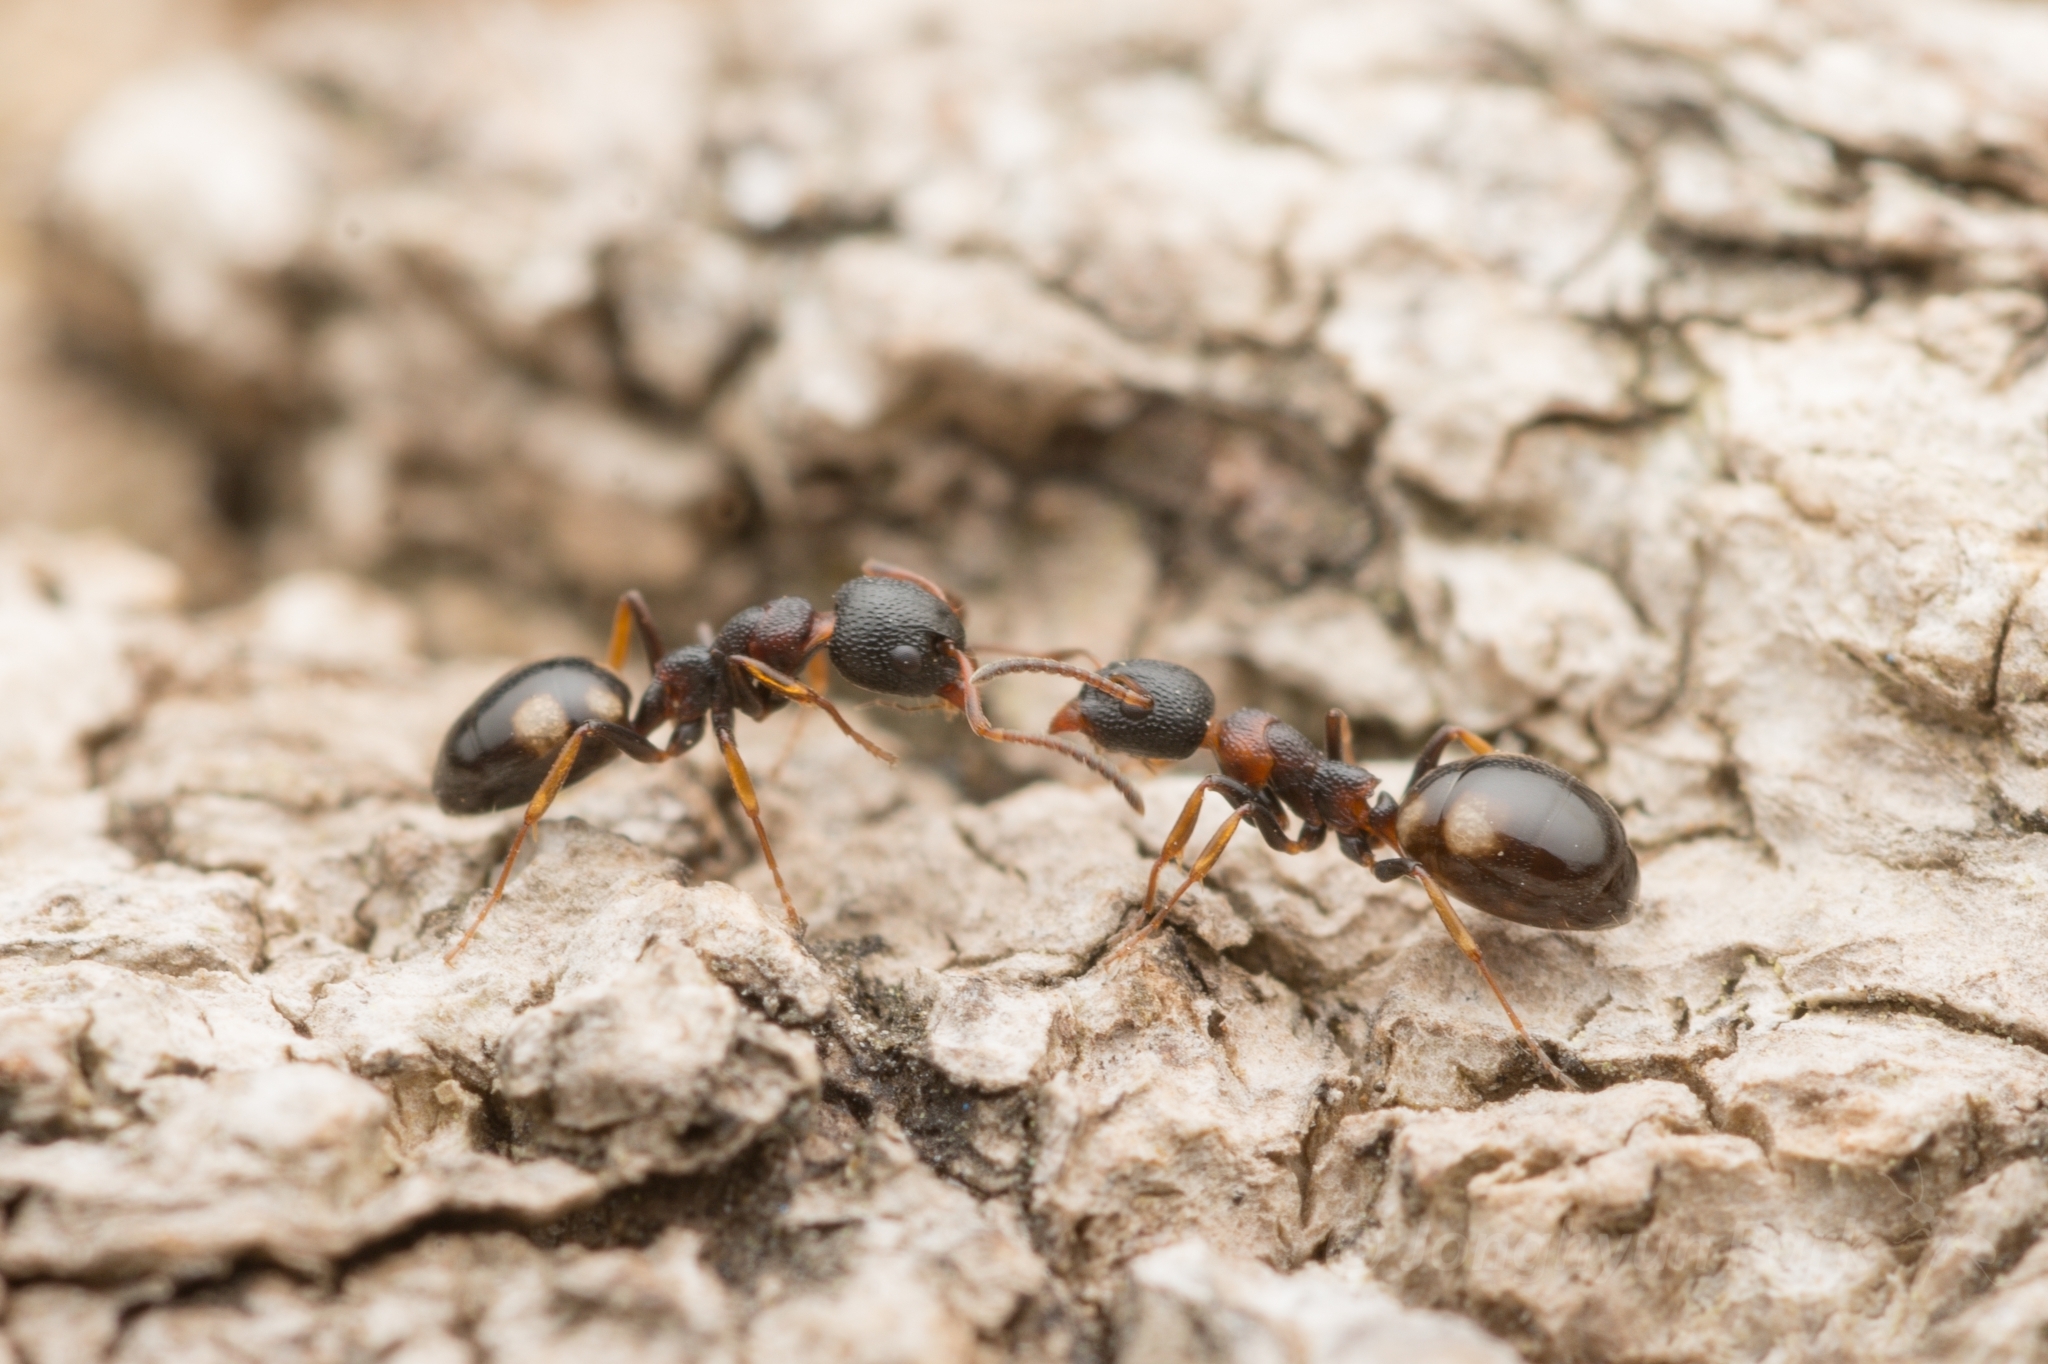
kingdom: Animalia
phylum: Arthropoda
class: Insecta
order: Hymenoptera
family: Formicidae
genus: Dolichoderus
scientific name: Dolichoderus sibiricus
